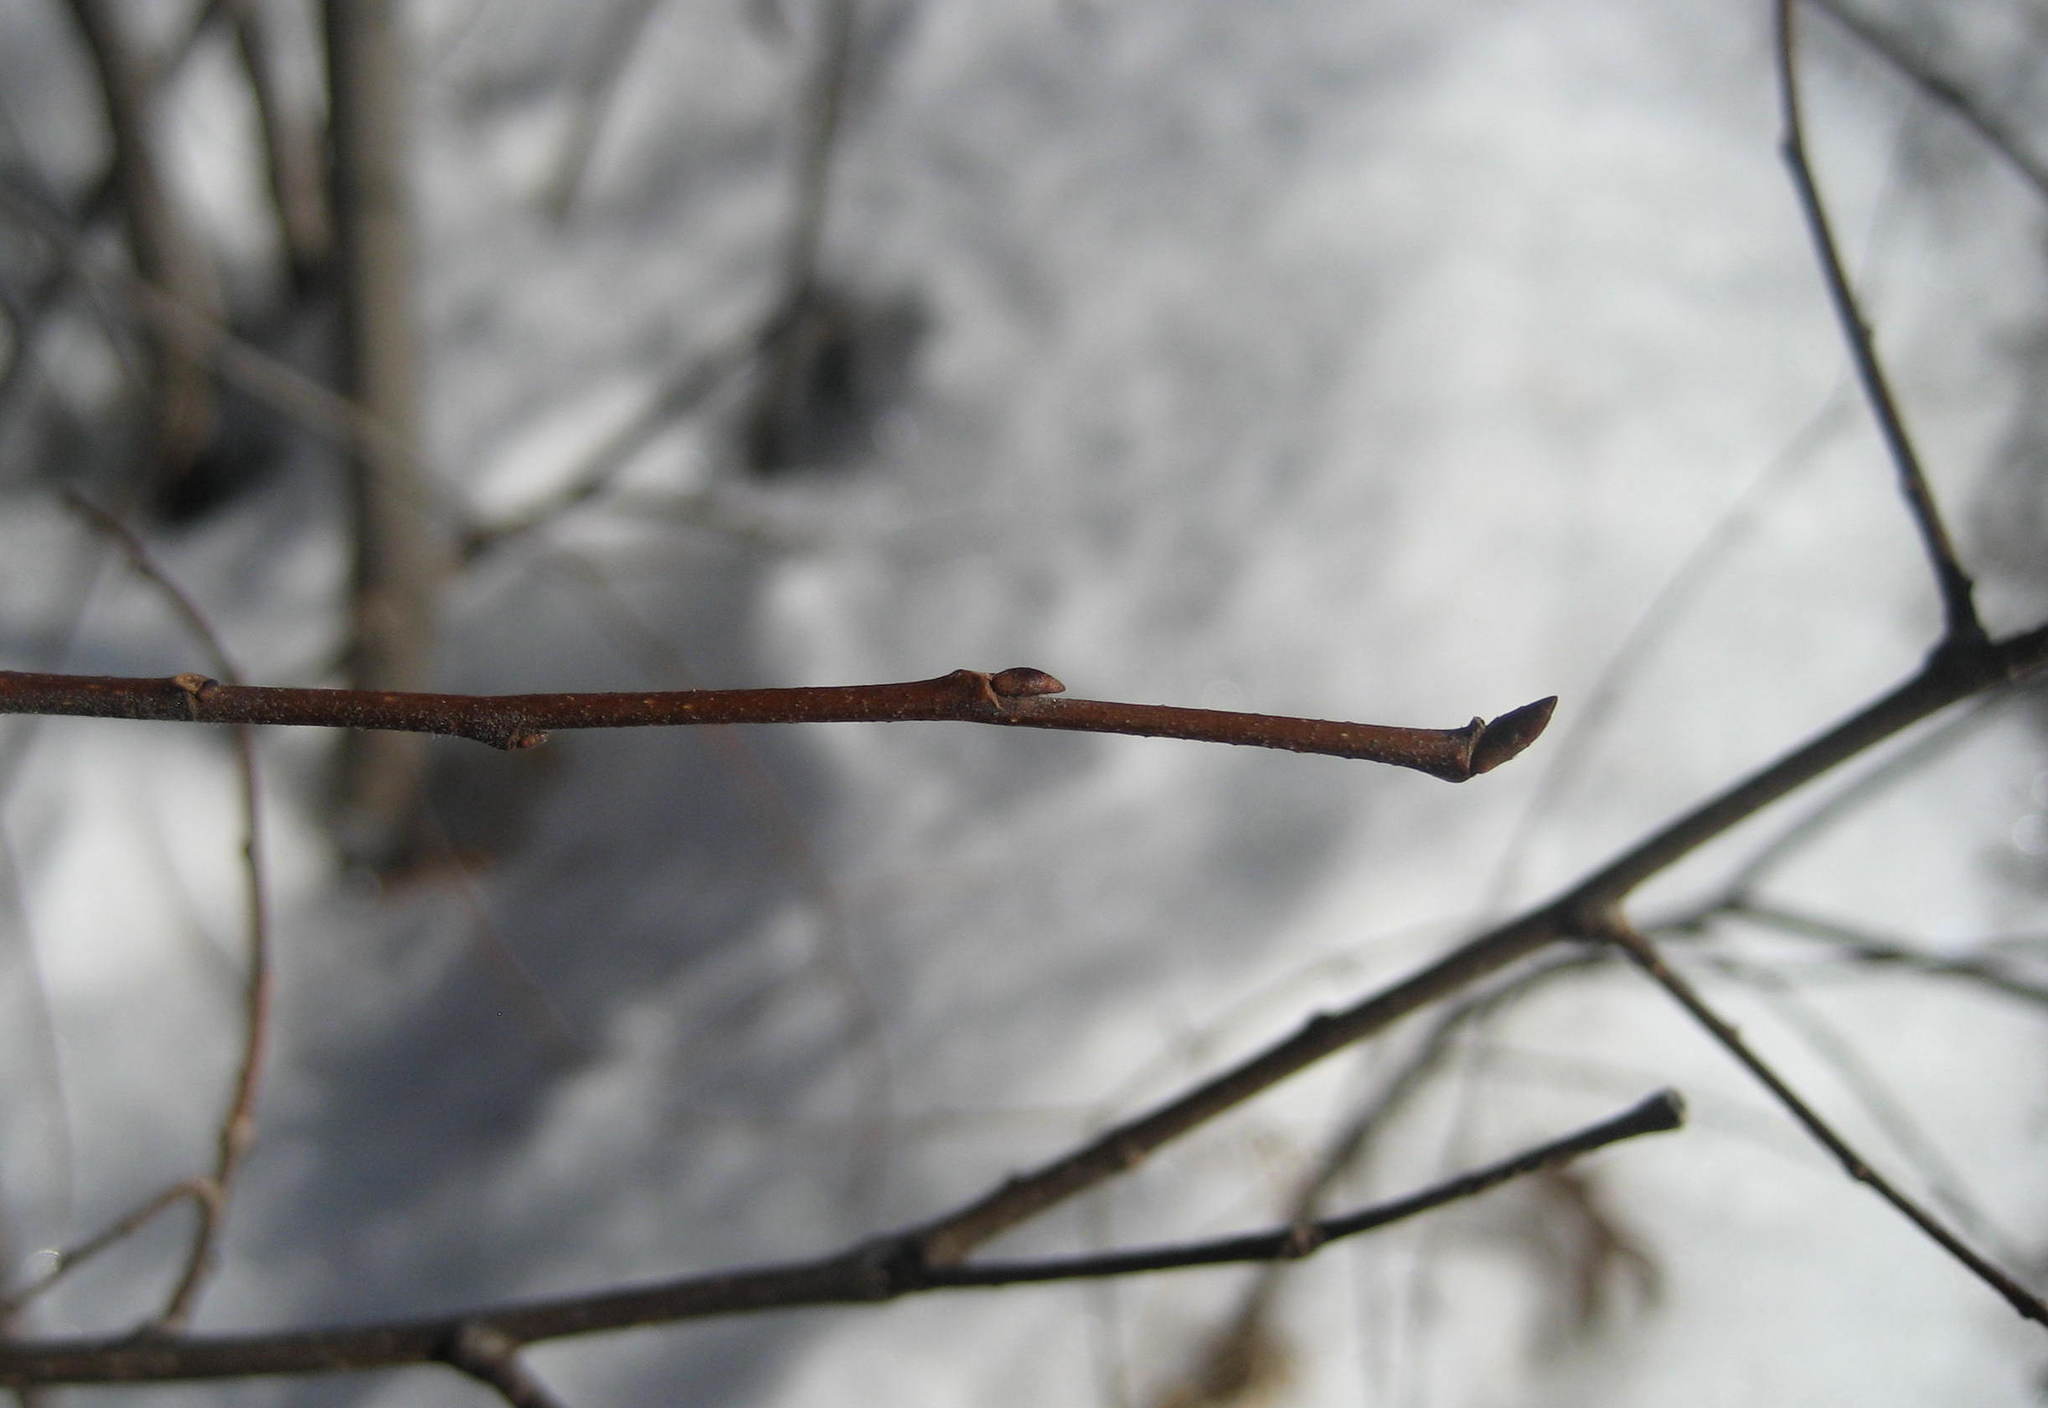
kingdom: Plantae
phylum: Tracheophyta
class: Magnoliopsida
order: Rosales
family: Ulmaceae
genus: Ulmus
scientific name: Ulmus americana
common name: American elm
